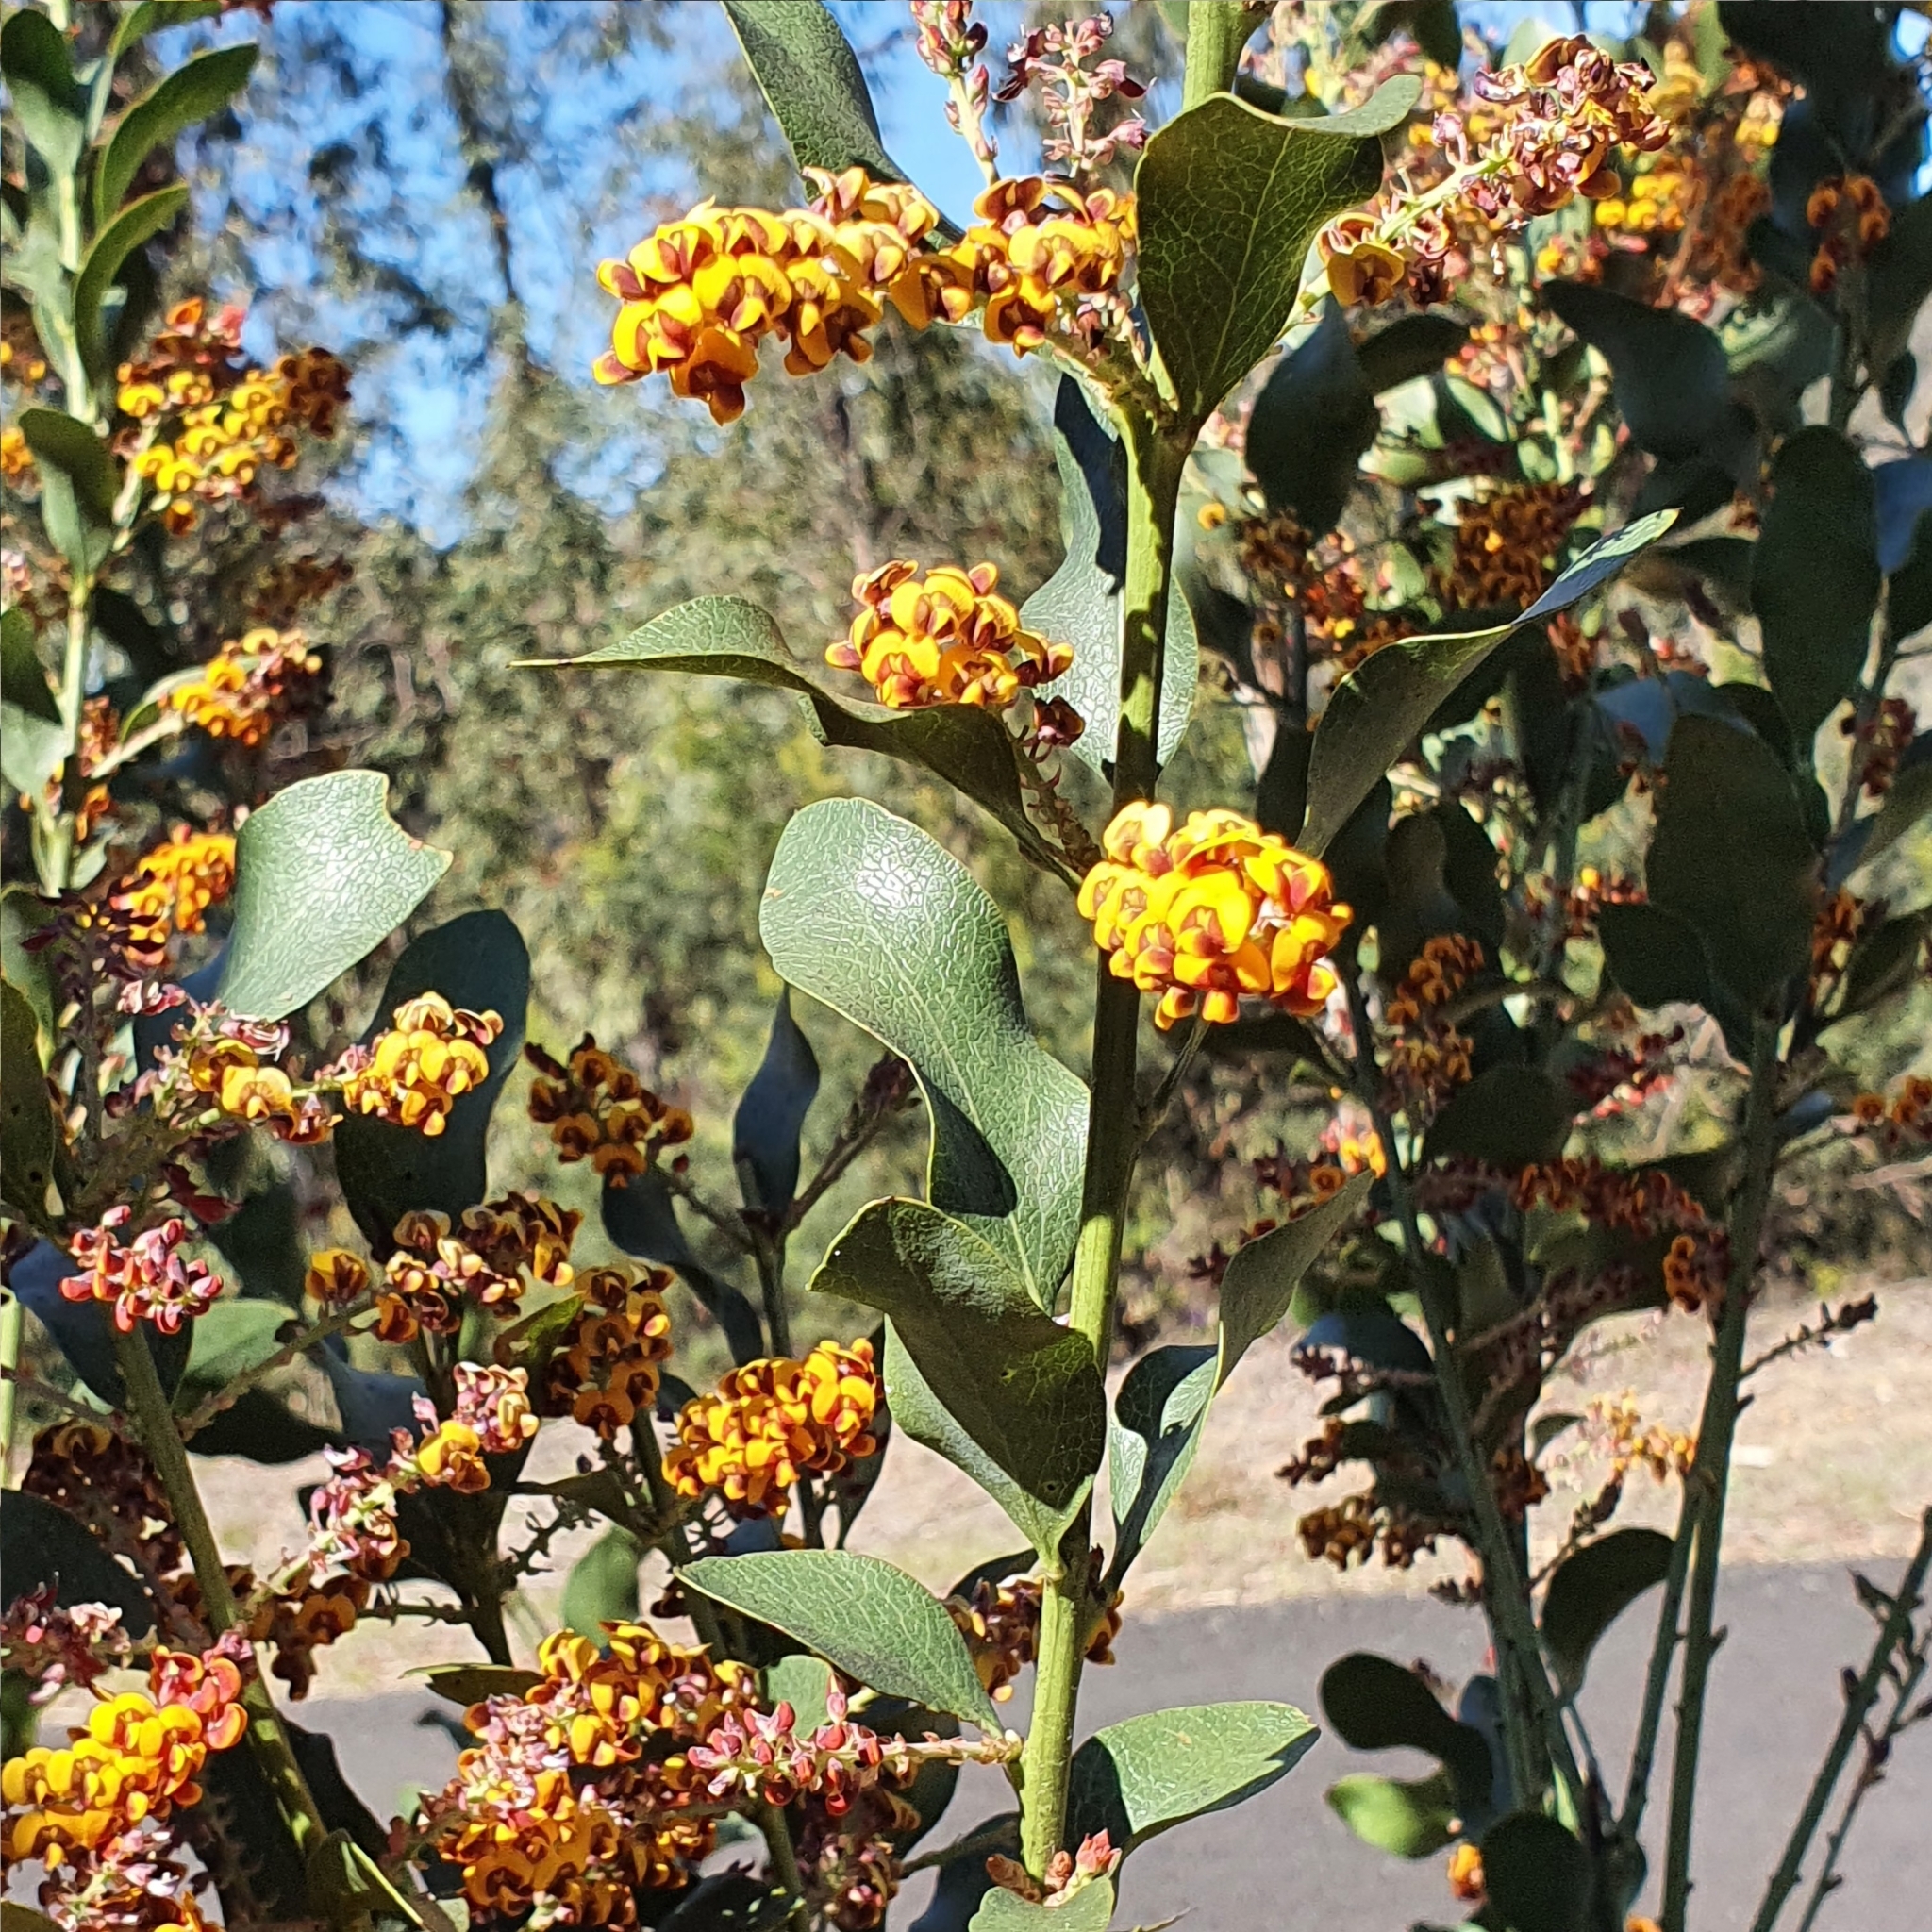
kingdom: Plantae
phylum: Tracheophyta
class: Magnoliopsida
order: Fabales
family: Fabaceae
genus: Daviesia
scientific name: Daviesia latifolia
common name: Hop bitter-pea
